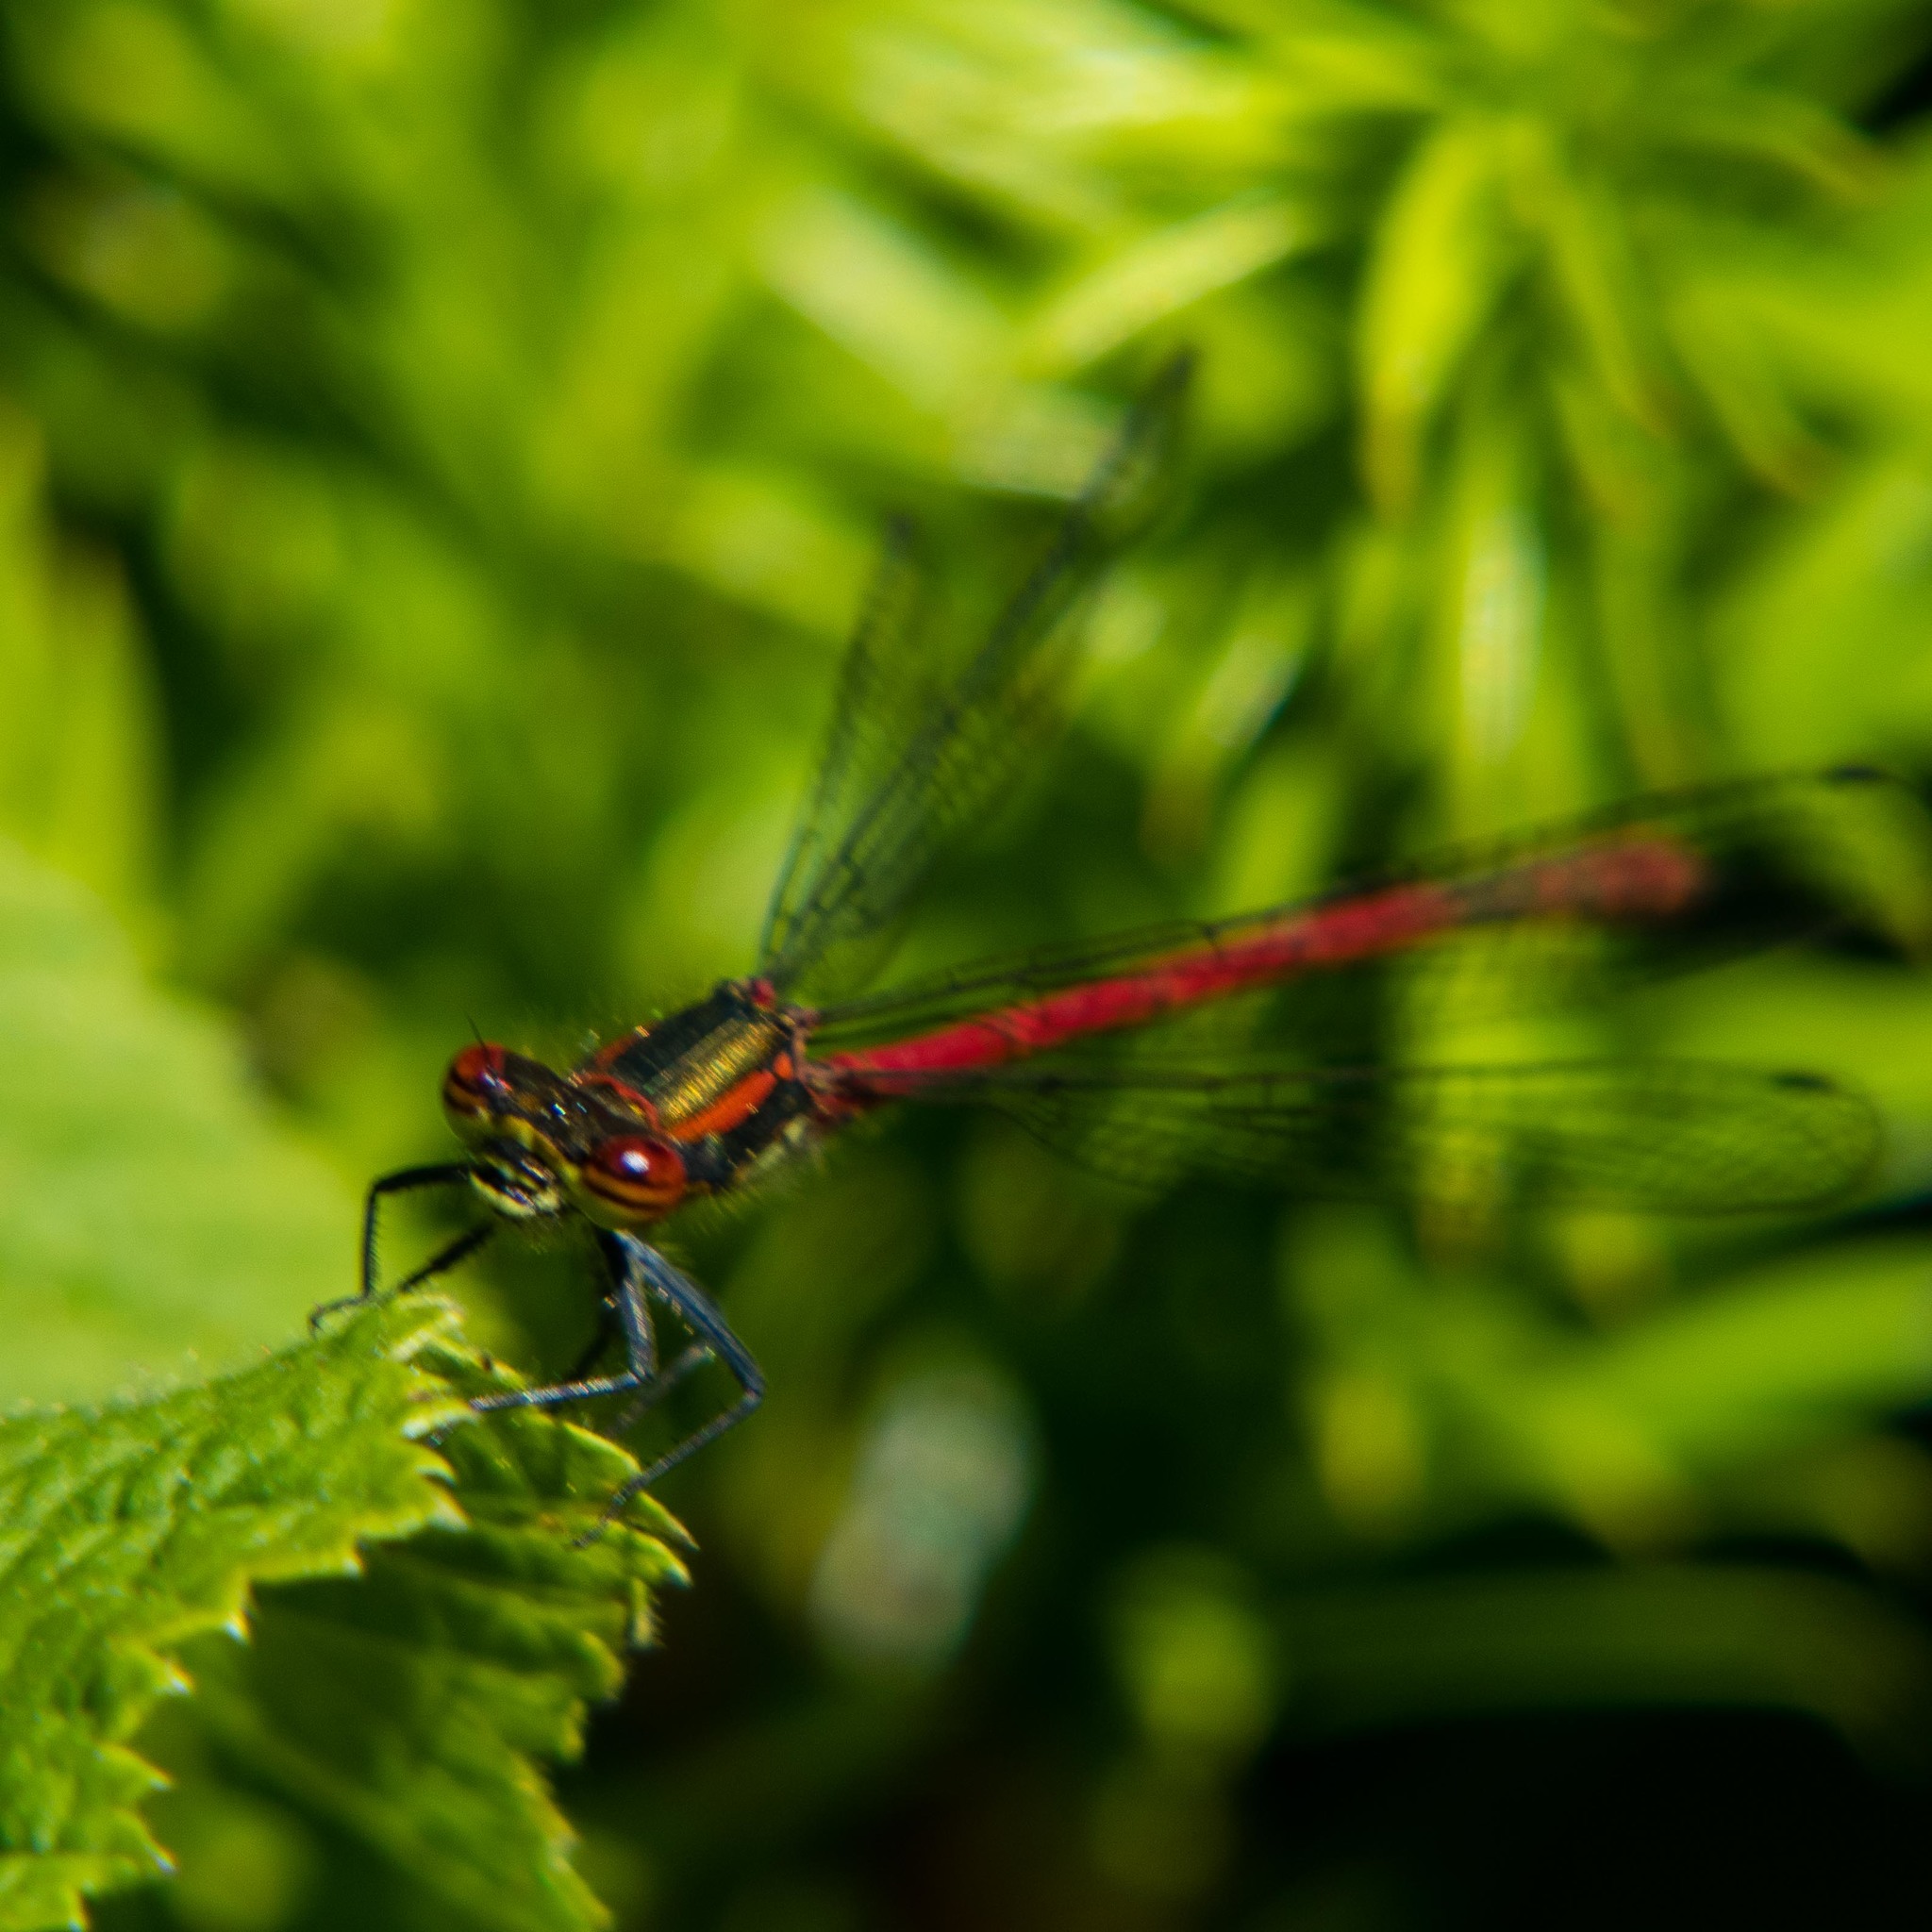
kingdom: Animalia
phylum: Arthropoda
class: Insecta
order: Odonata
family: Coenagrionidae
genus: Pyrrhosoma
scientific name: Pyrrhosoma nymphula
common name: Large red damsel
